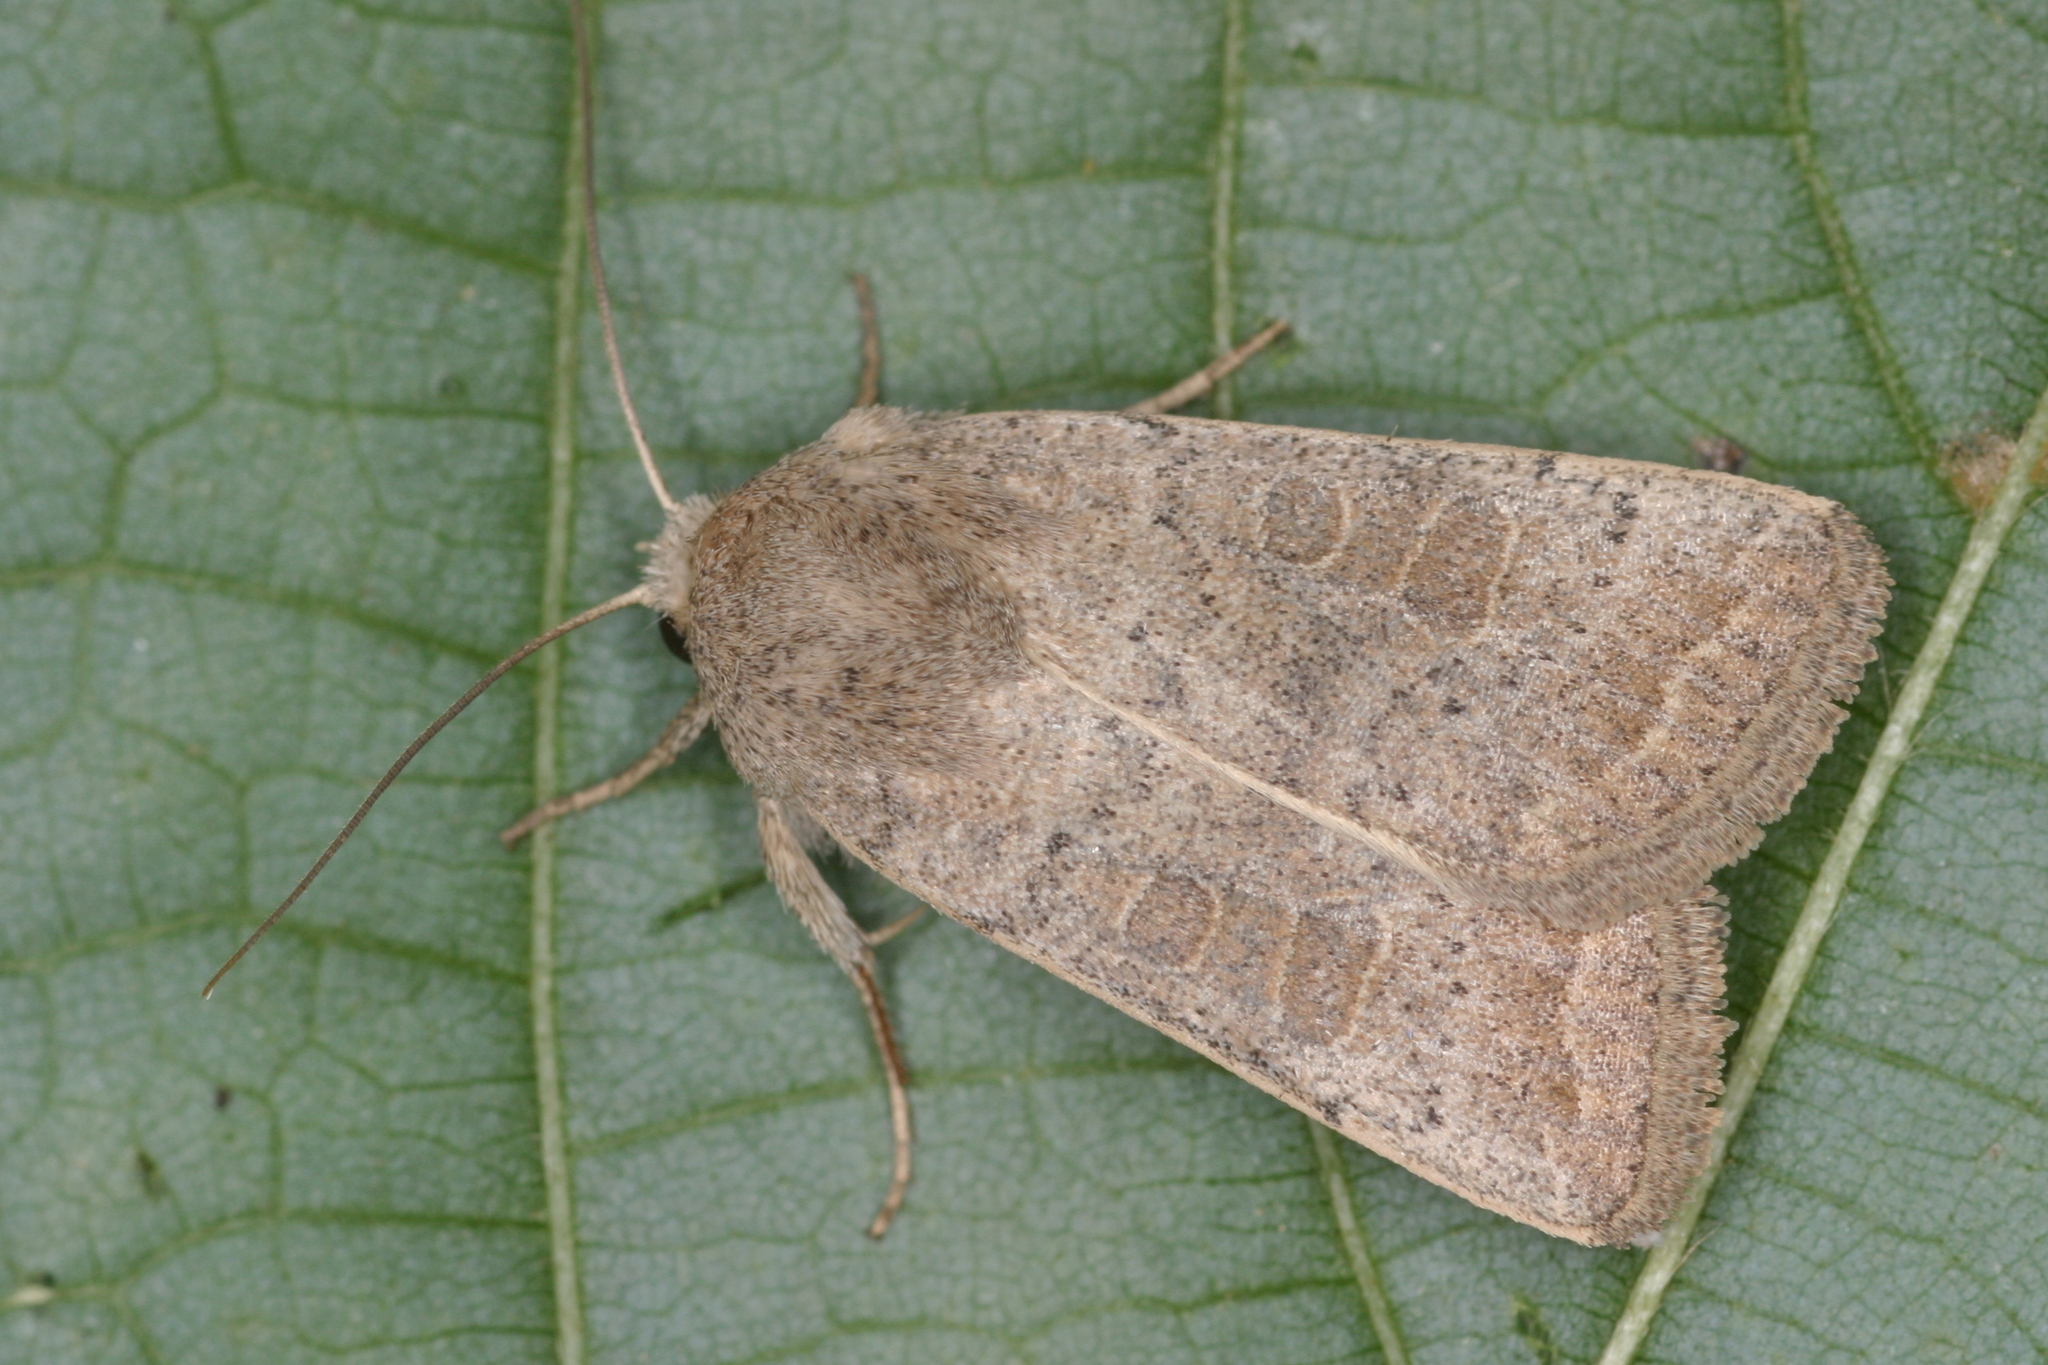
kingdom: Animalia
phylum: Arthropoda
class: Insecta
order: Lepidoptera
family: Noctuidae
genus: Hoplodrina
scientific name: Hoplodrina ambigua
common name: Vine's rustic
